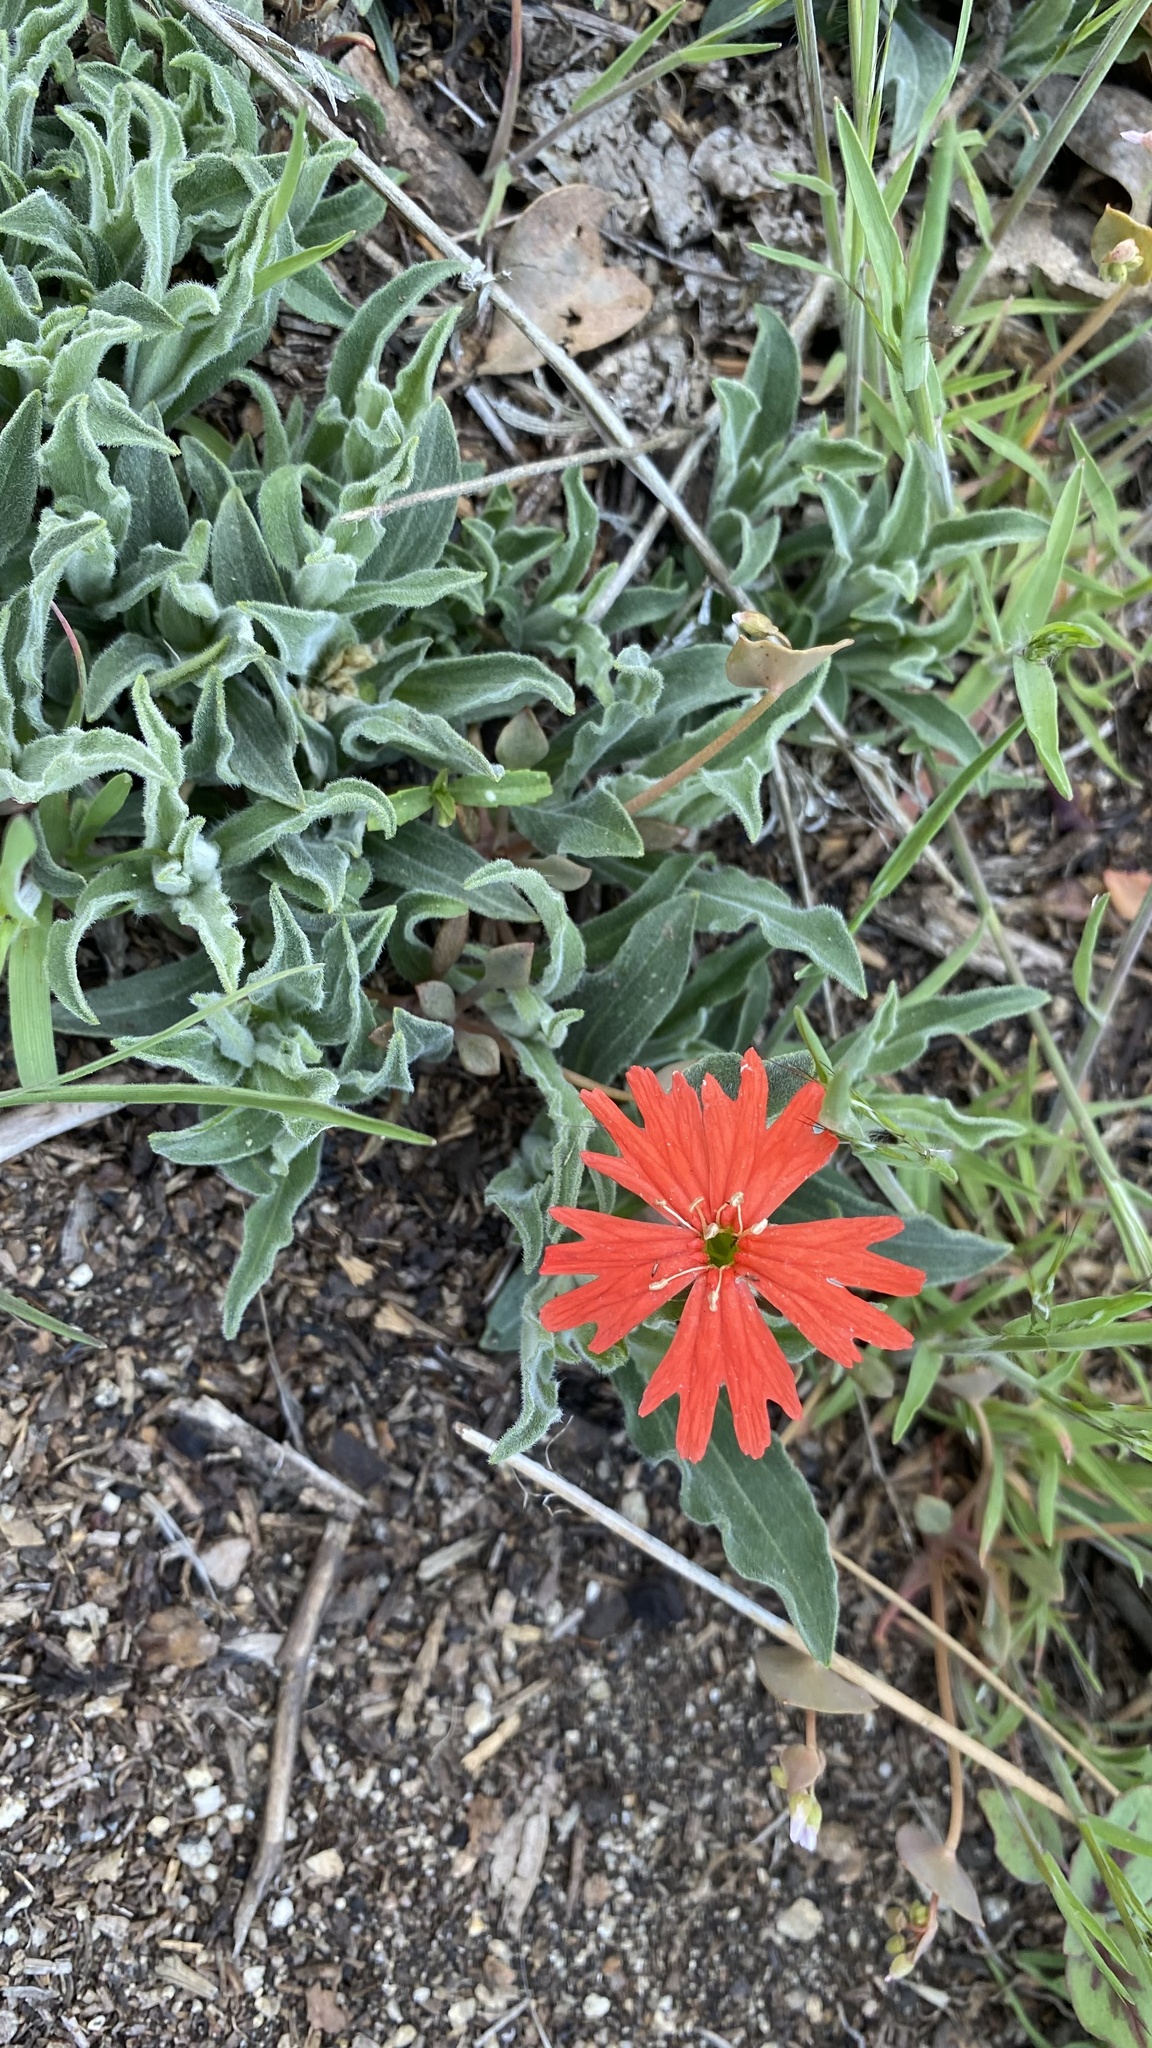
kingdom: Plantae
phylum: Tracheophyta
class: Magnoliopsida
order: Caryophyllales
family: Caryophyllaceae
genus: Silene
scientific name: Silene laciniata
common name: Indian-pink
